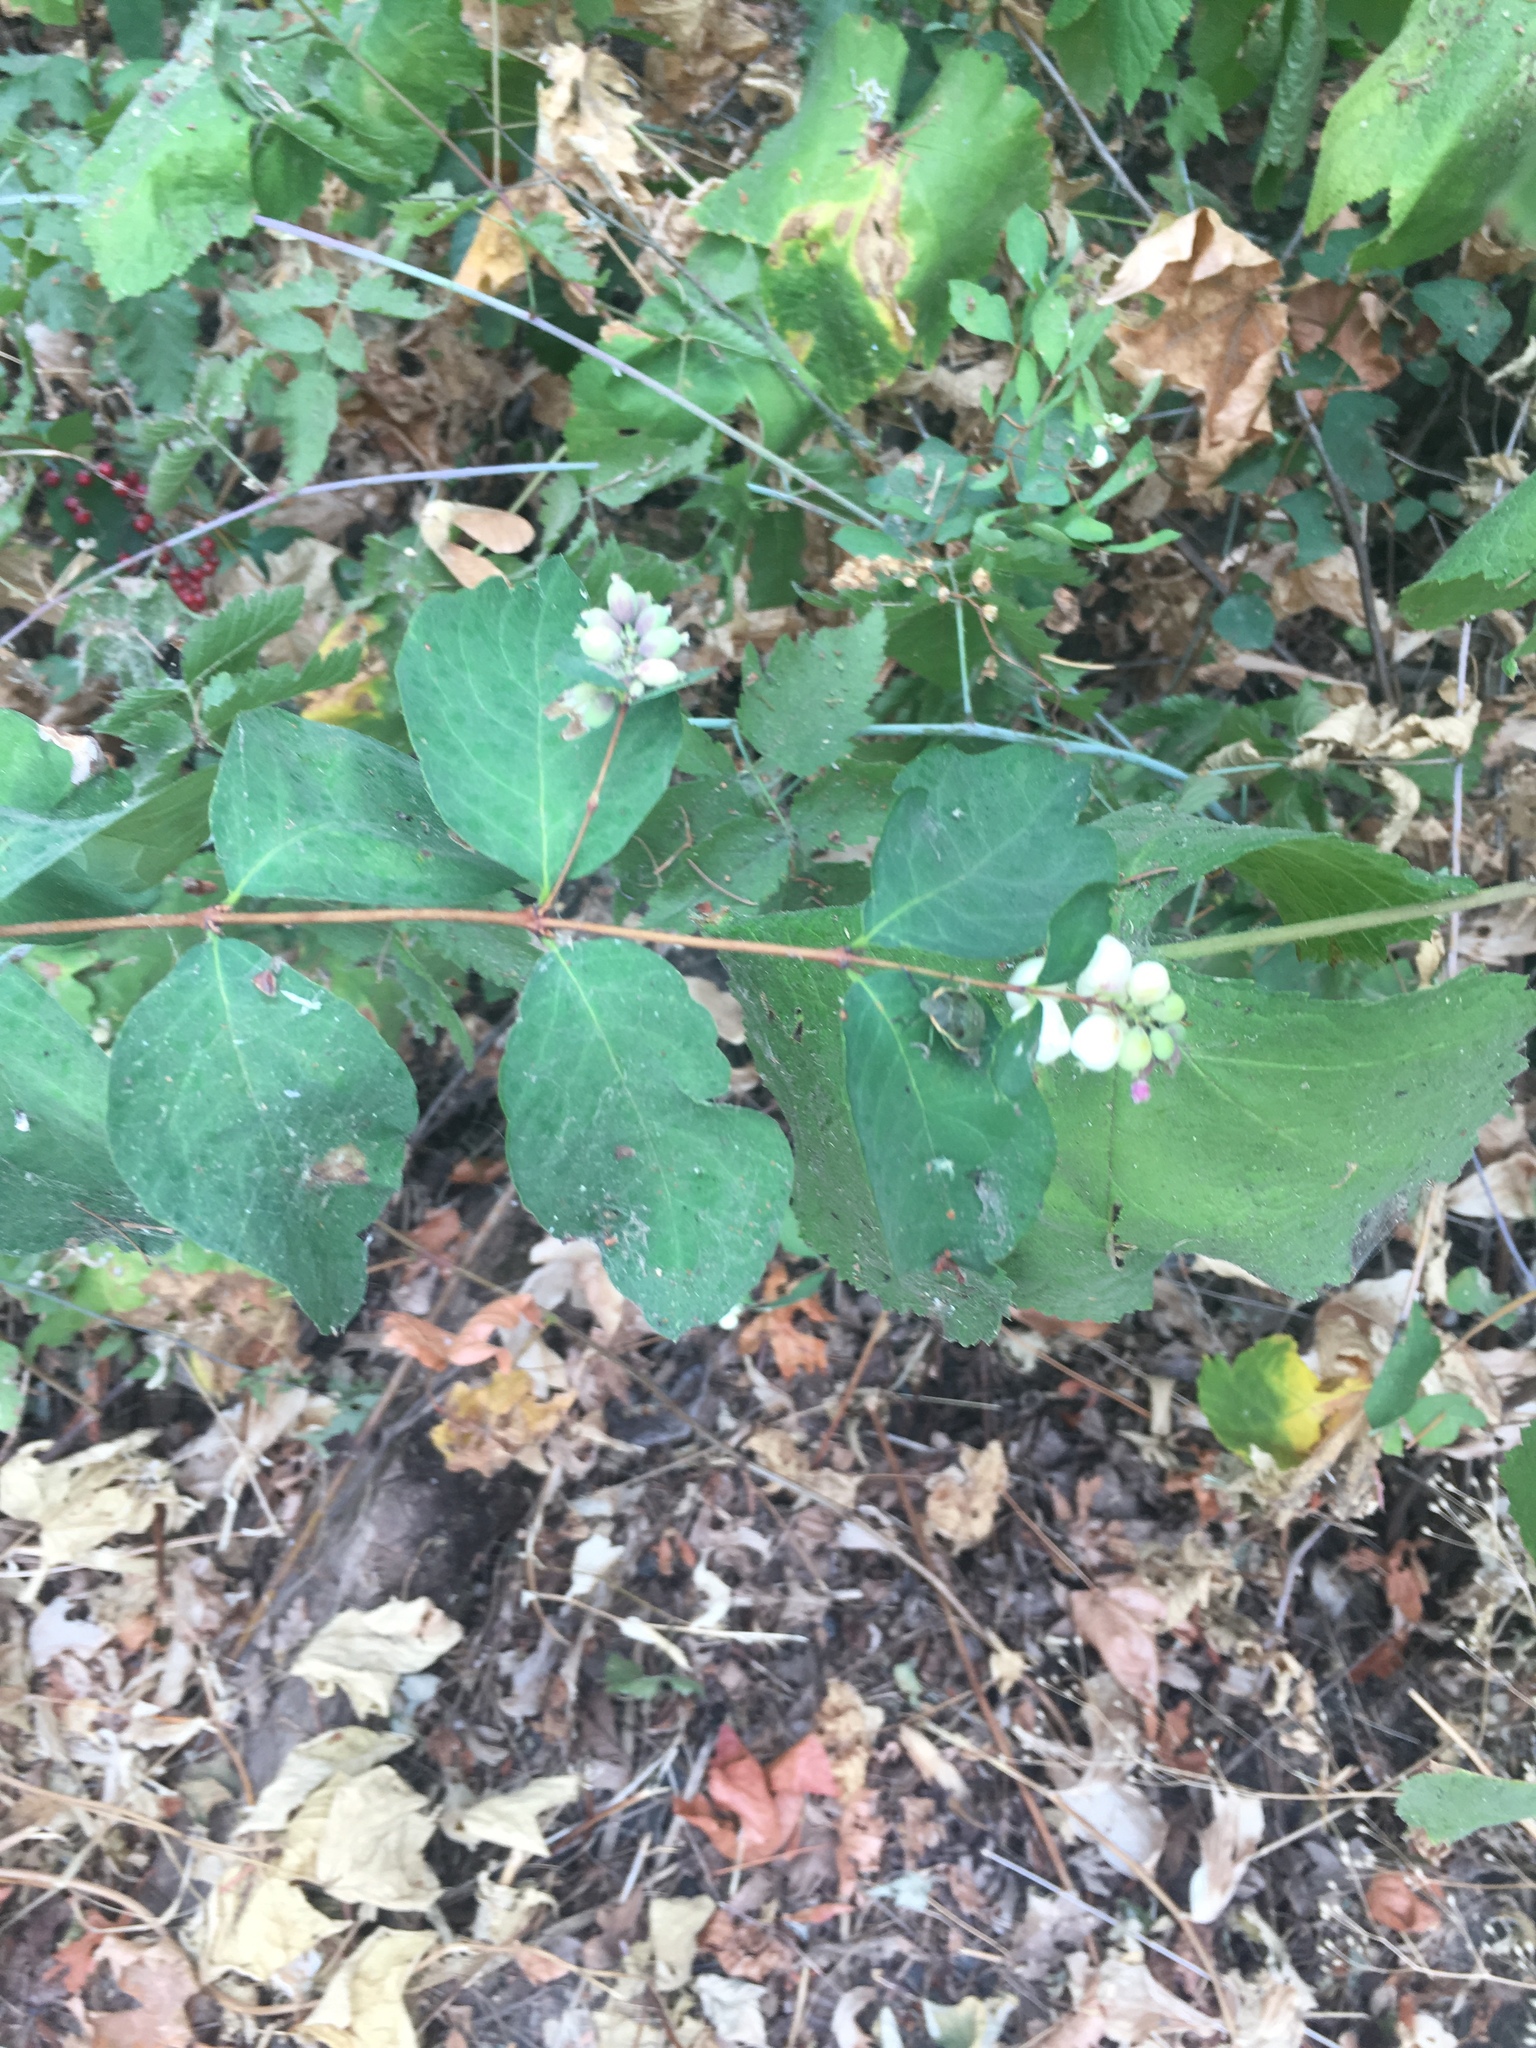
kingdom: Plantae
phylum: Tracheophyta
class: Magnoliopsida
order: Dipsacales
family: Caprifoliaceae
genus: Symphoricarpos
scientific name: Symphoricarpos albus
